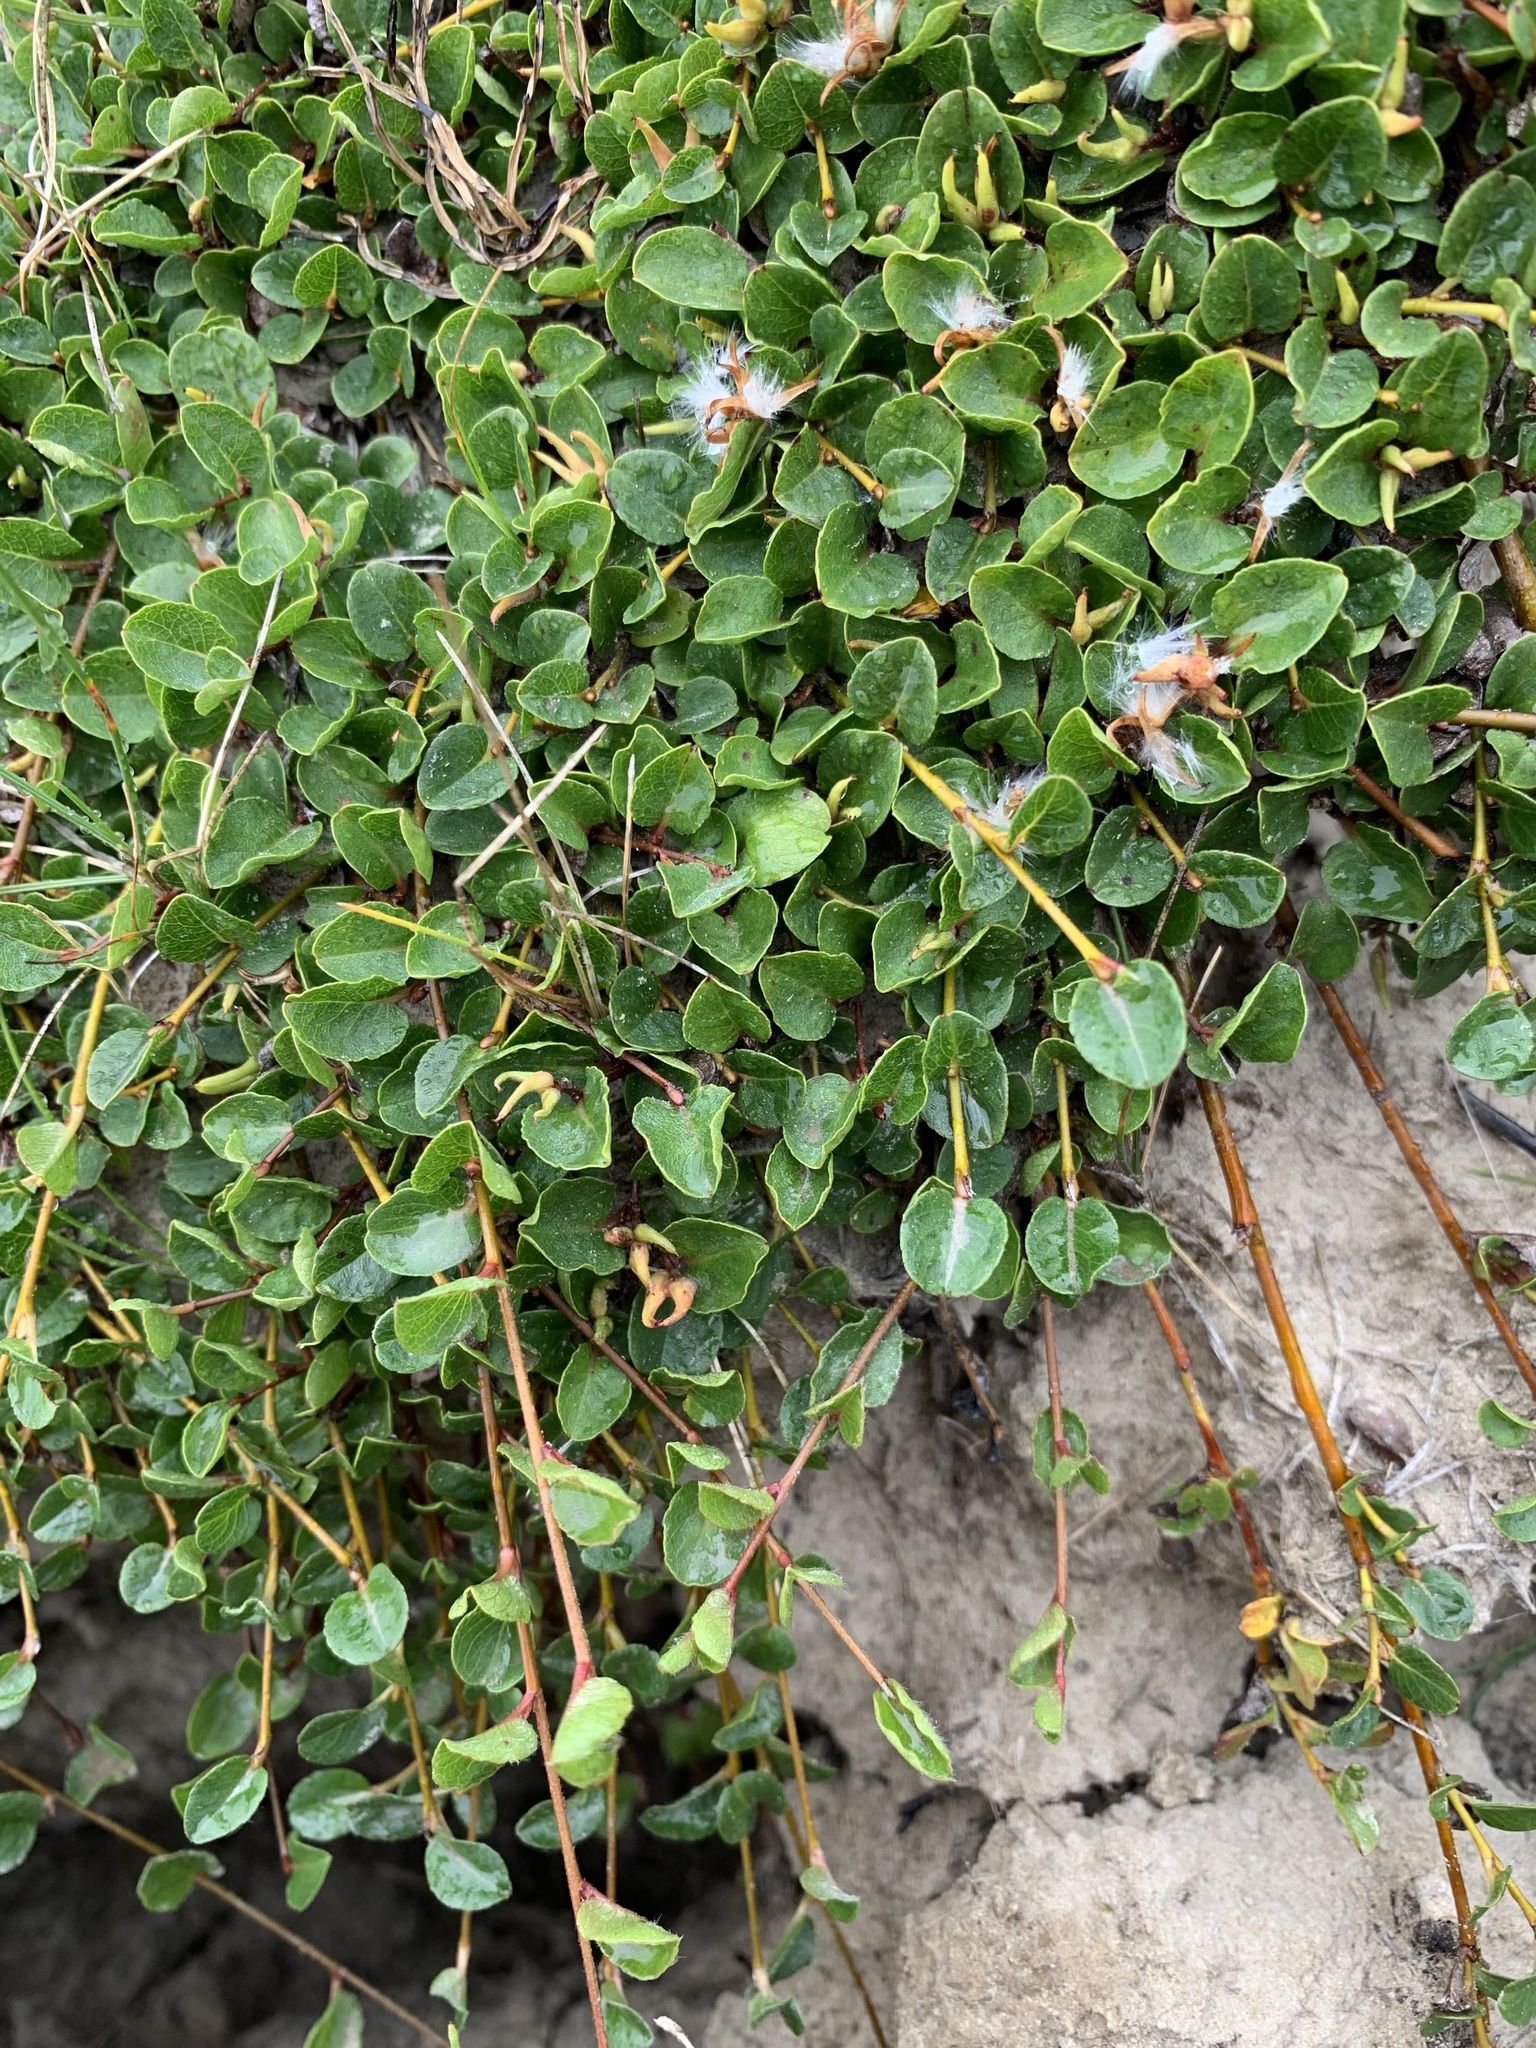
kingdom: Plantae
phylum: Tracheophyta
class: Magnoliopsida
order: Malpighiales
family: Salicaceae
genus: Salix
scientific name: Salix nummularia
